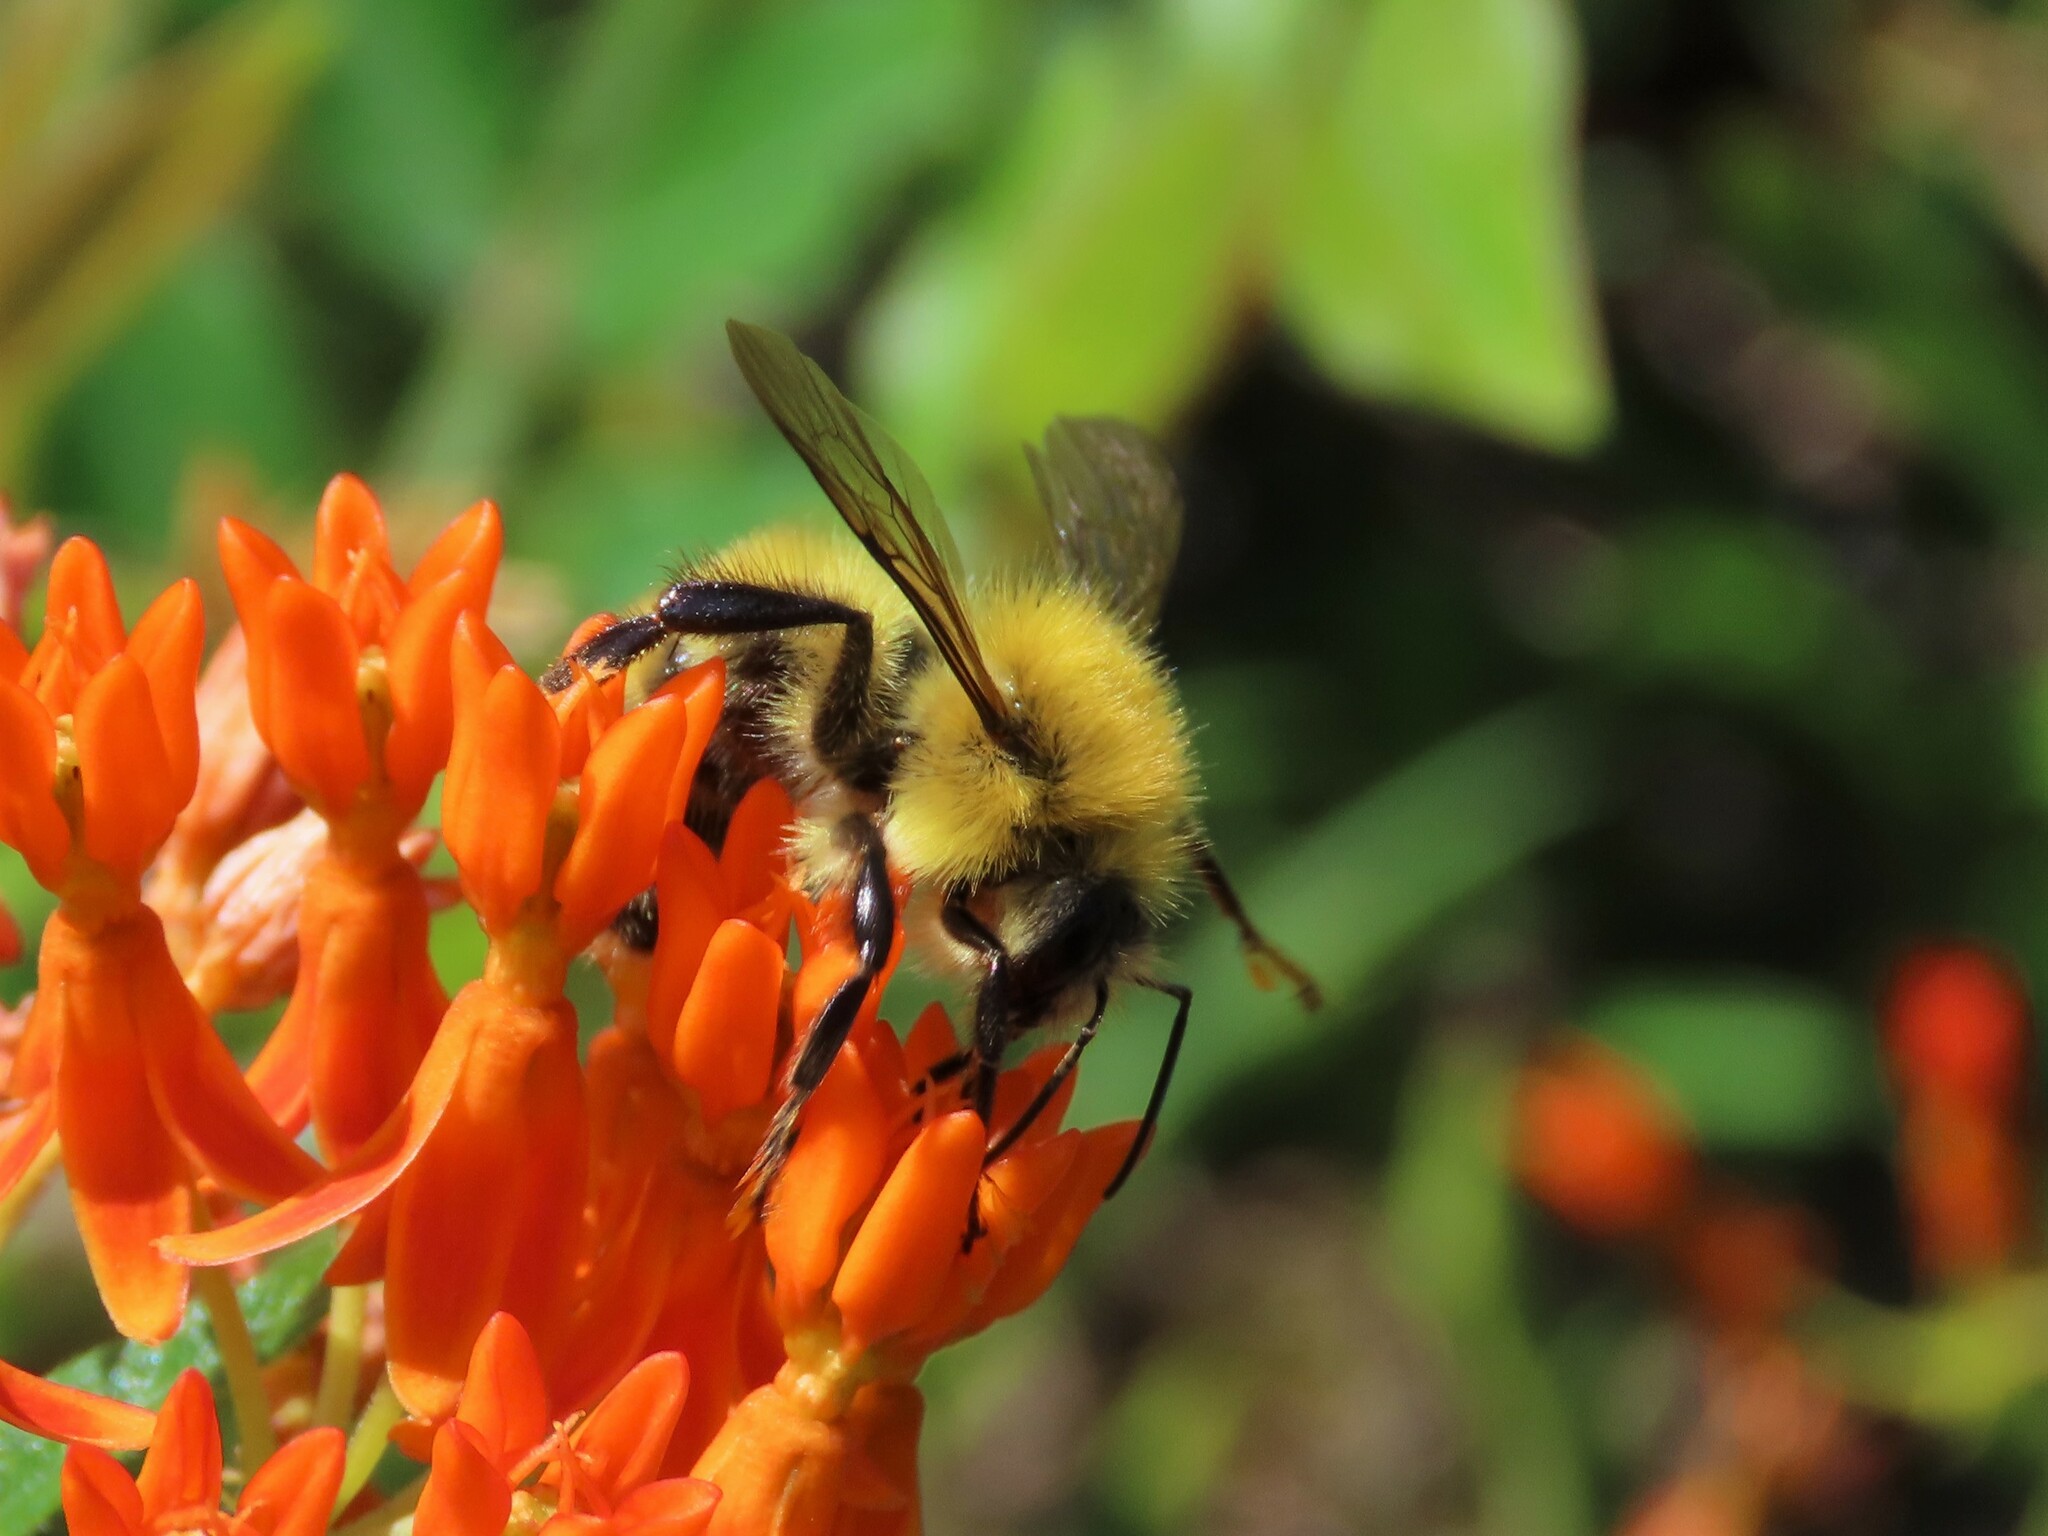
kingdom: Animalia
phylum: Arthropoda
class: Insecta
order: Hymenoptera
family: Apidae
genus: Bombus
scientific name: Bombus perplexus
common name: Confusing bumble bee
